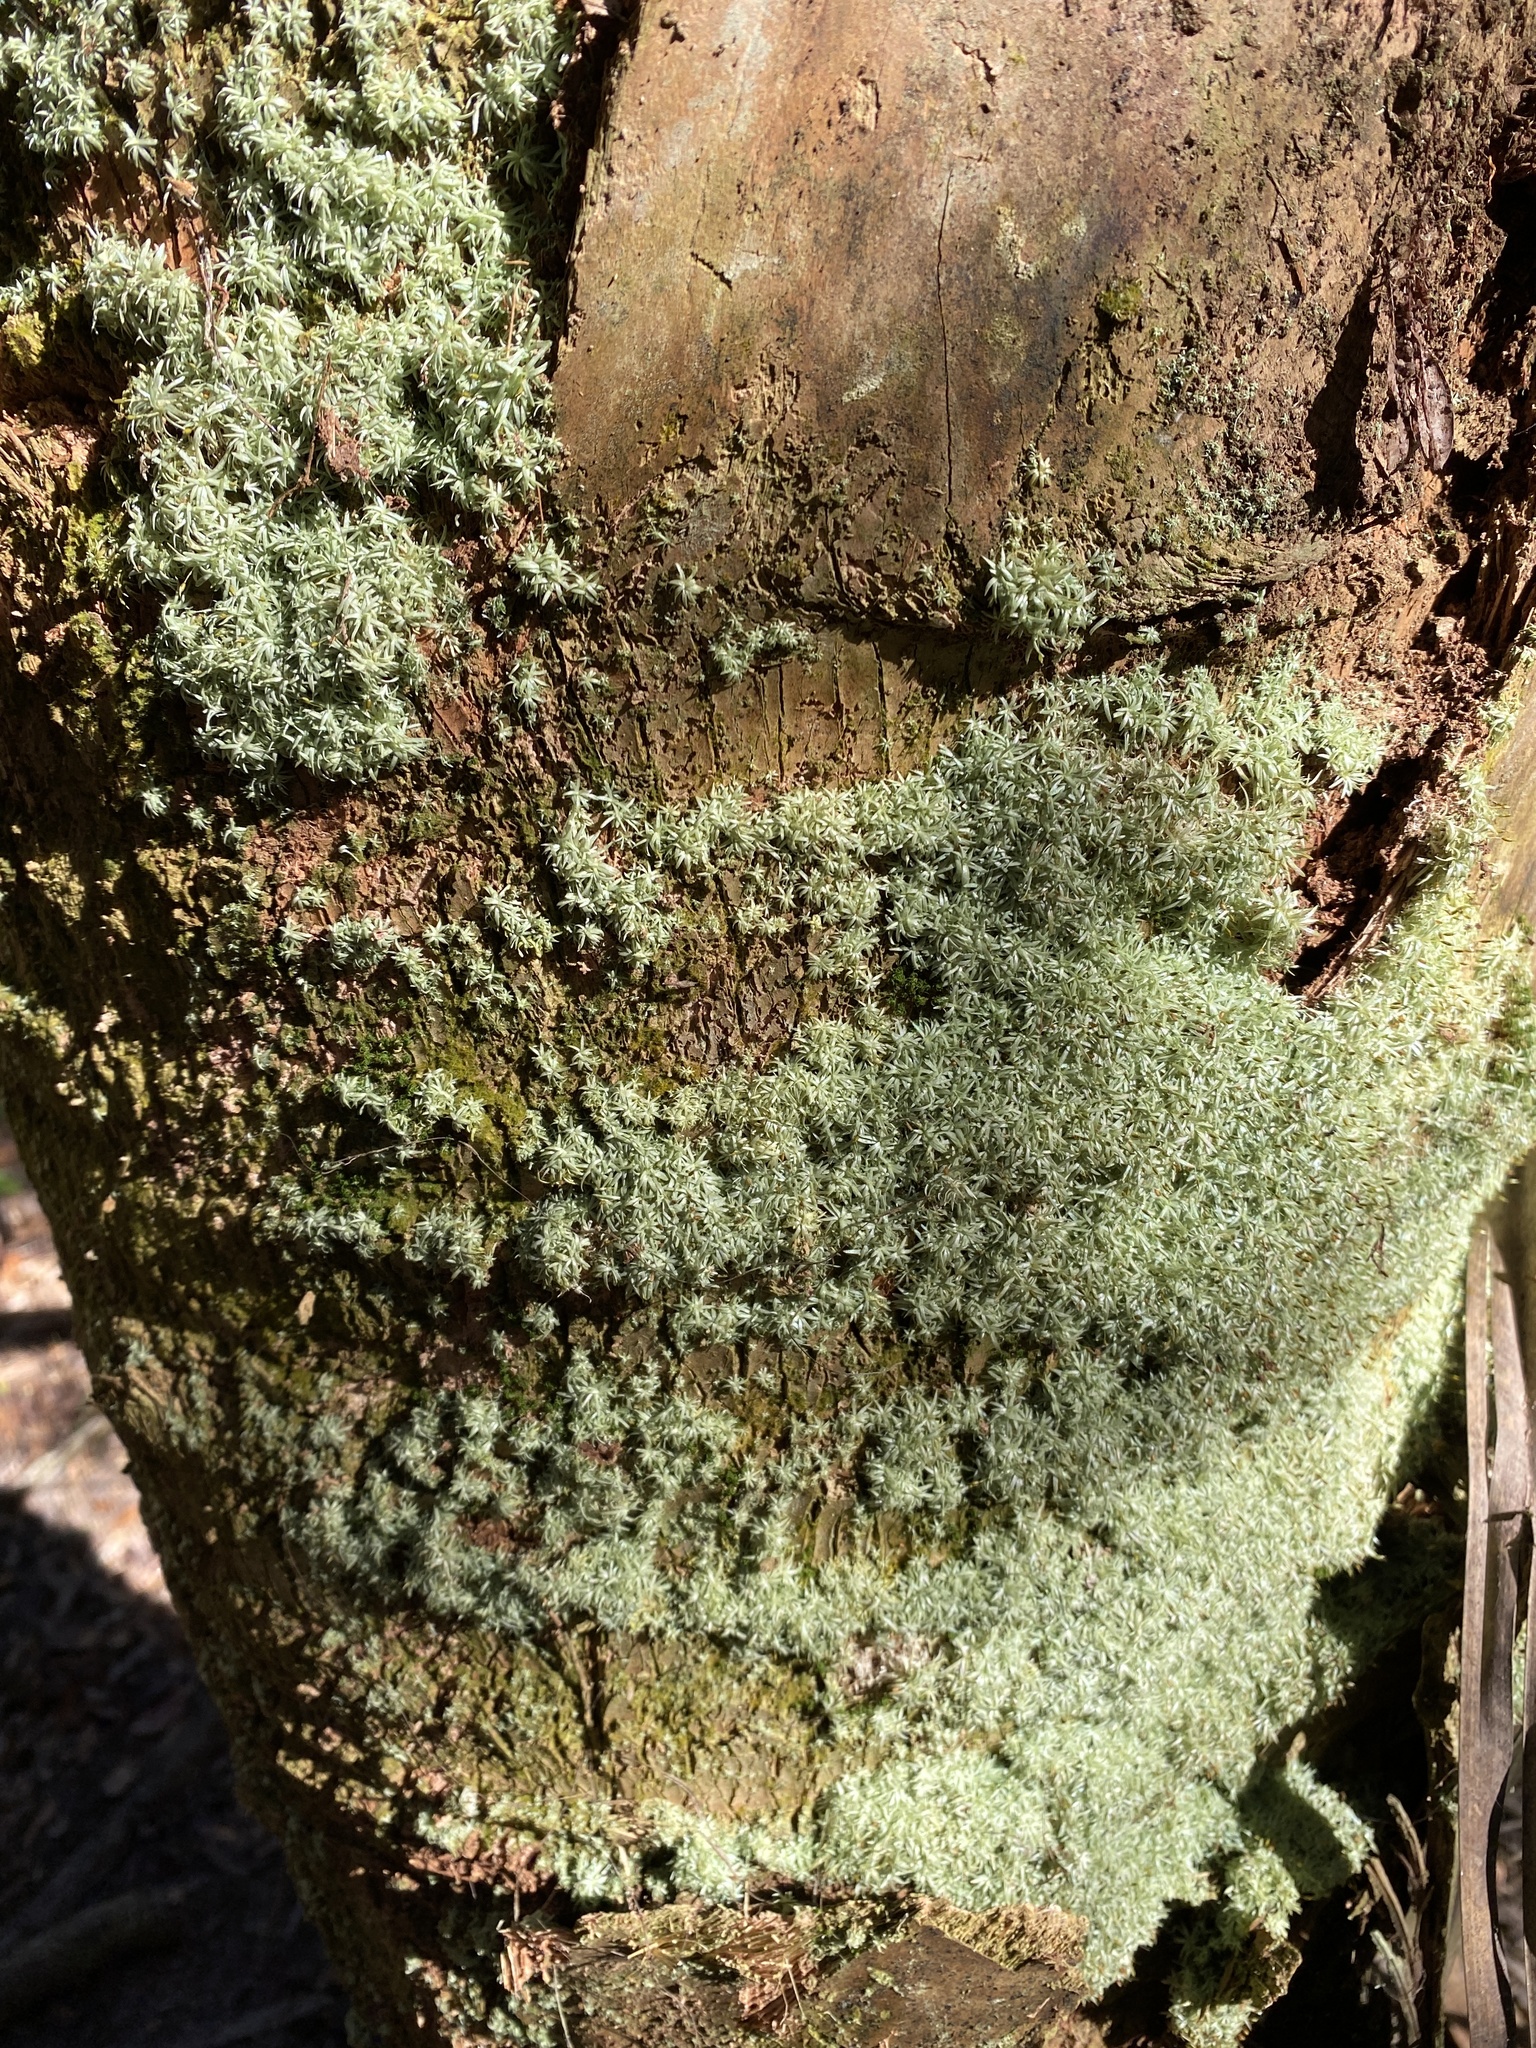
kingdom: Plantae
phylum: Bryophyta
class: Bryopsida
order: Dicranales
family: Octoblepharaceae
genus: Octoblepharum
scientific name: Octoblepharum albidum
